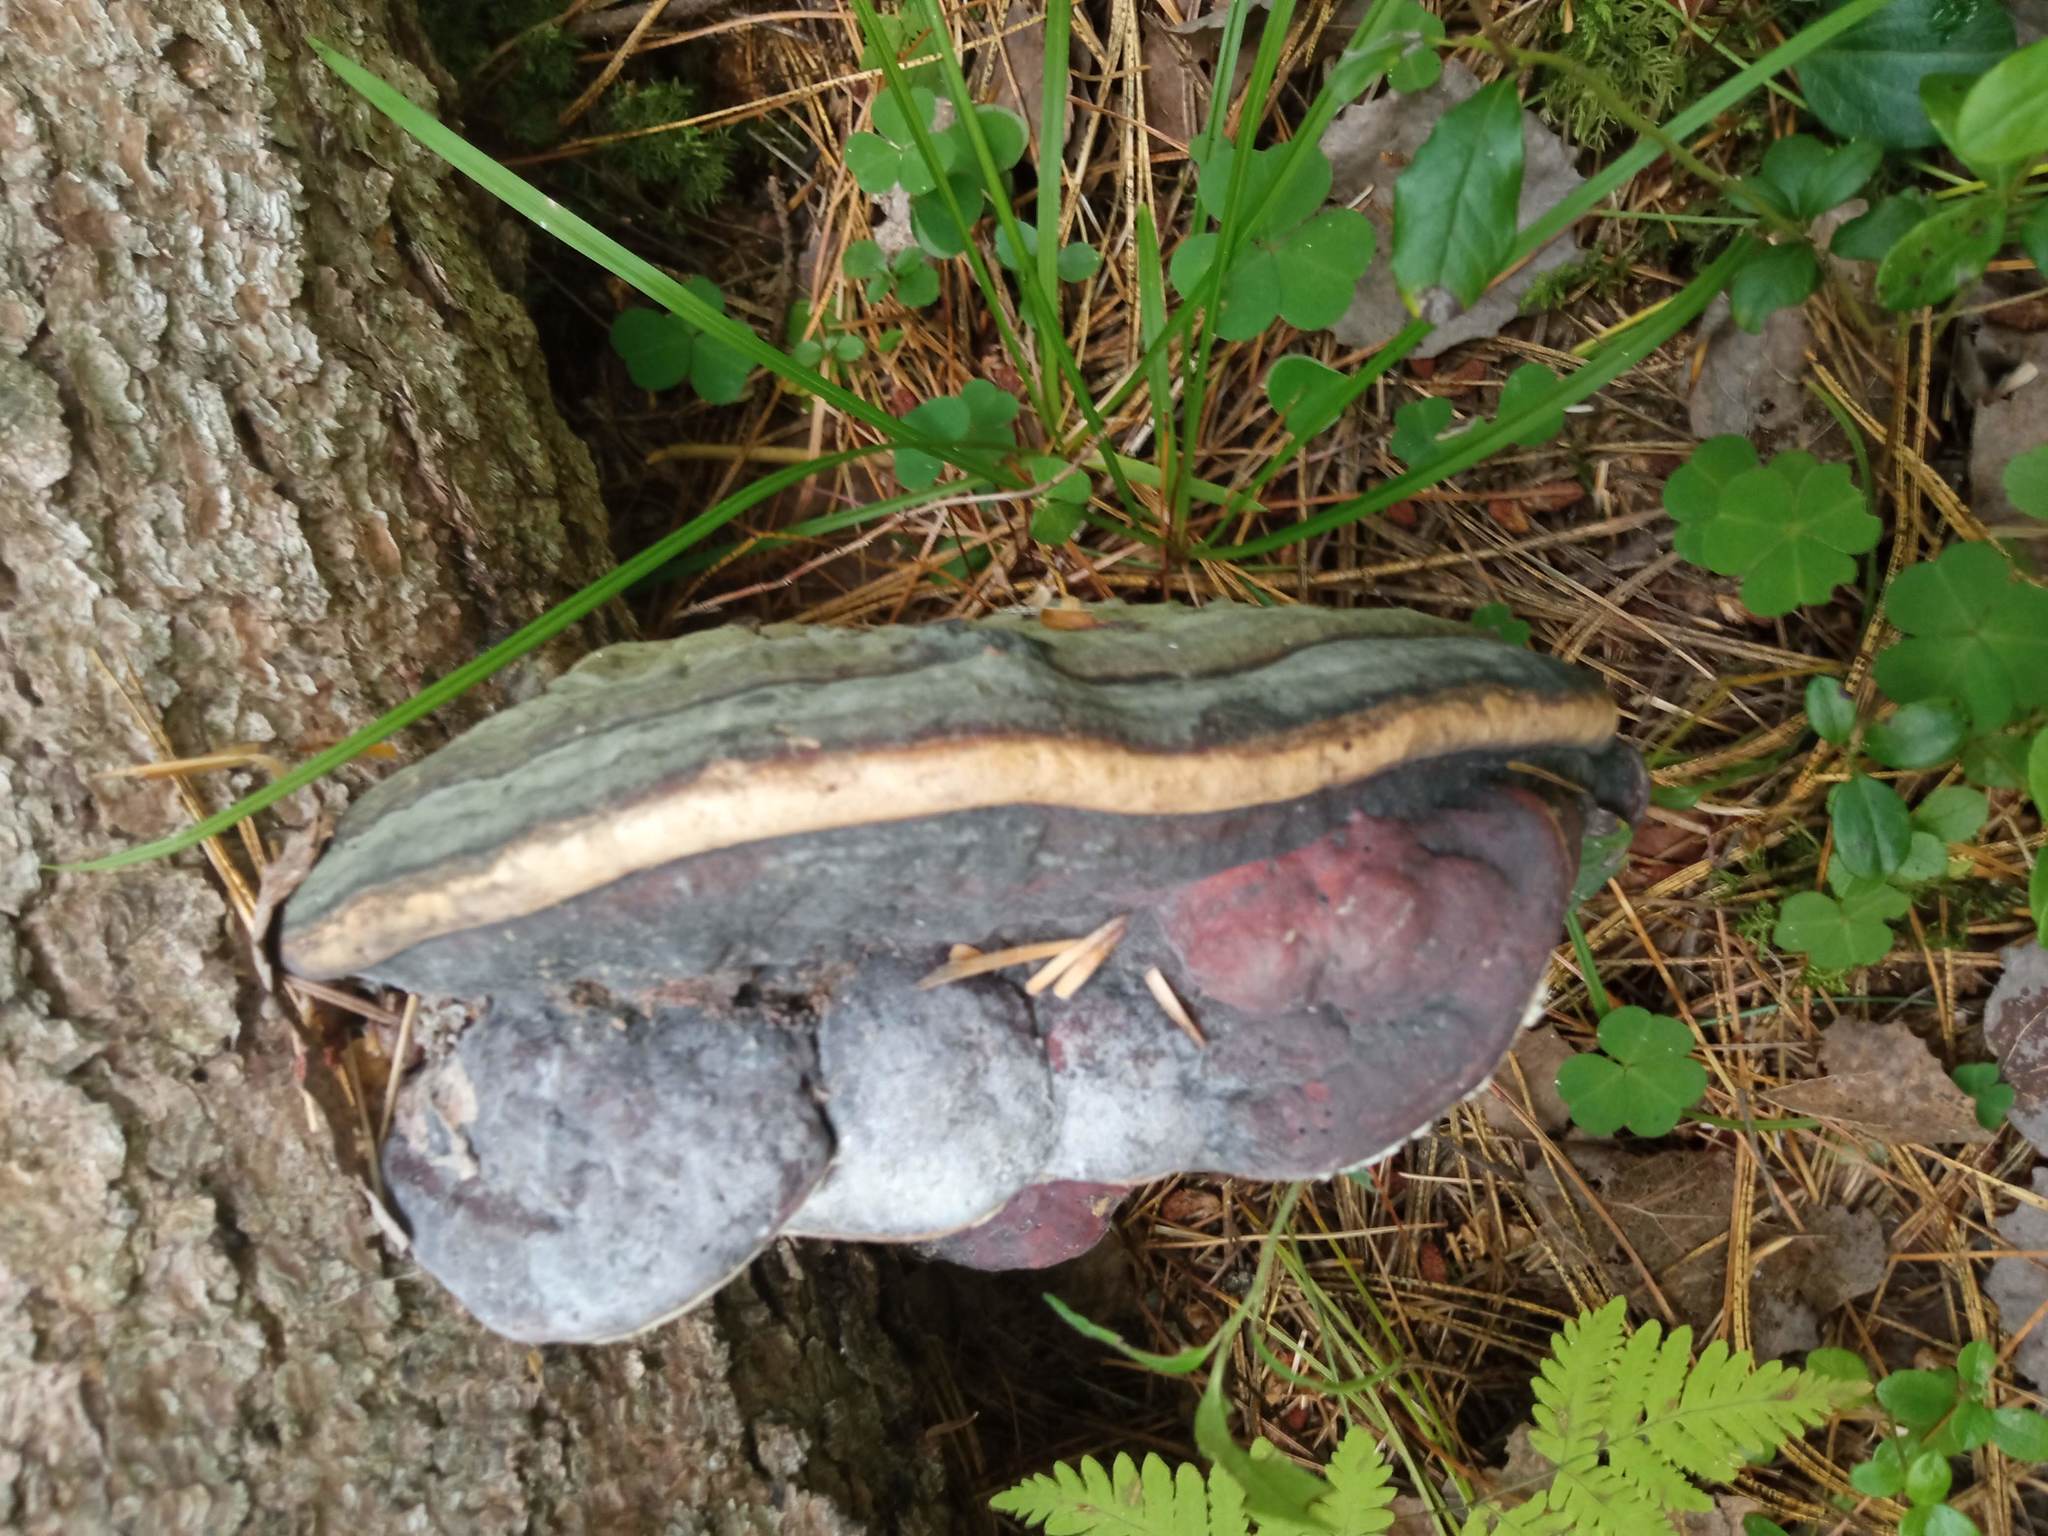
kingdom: Fungi
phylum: Basidiomycota
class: Agaricomycetes
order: Polyporales
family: Fomitopsidaceae
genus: Fomitopsis
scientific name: Fomitopsis pinicola
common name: Red-belted bracket
